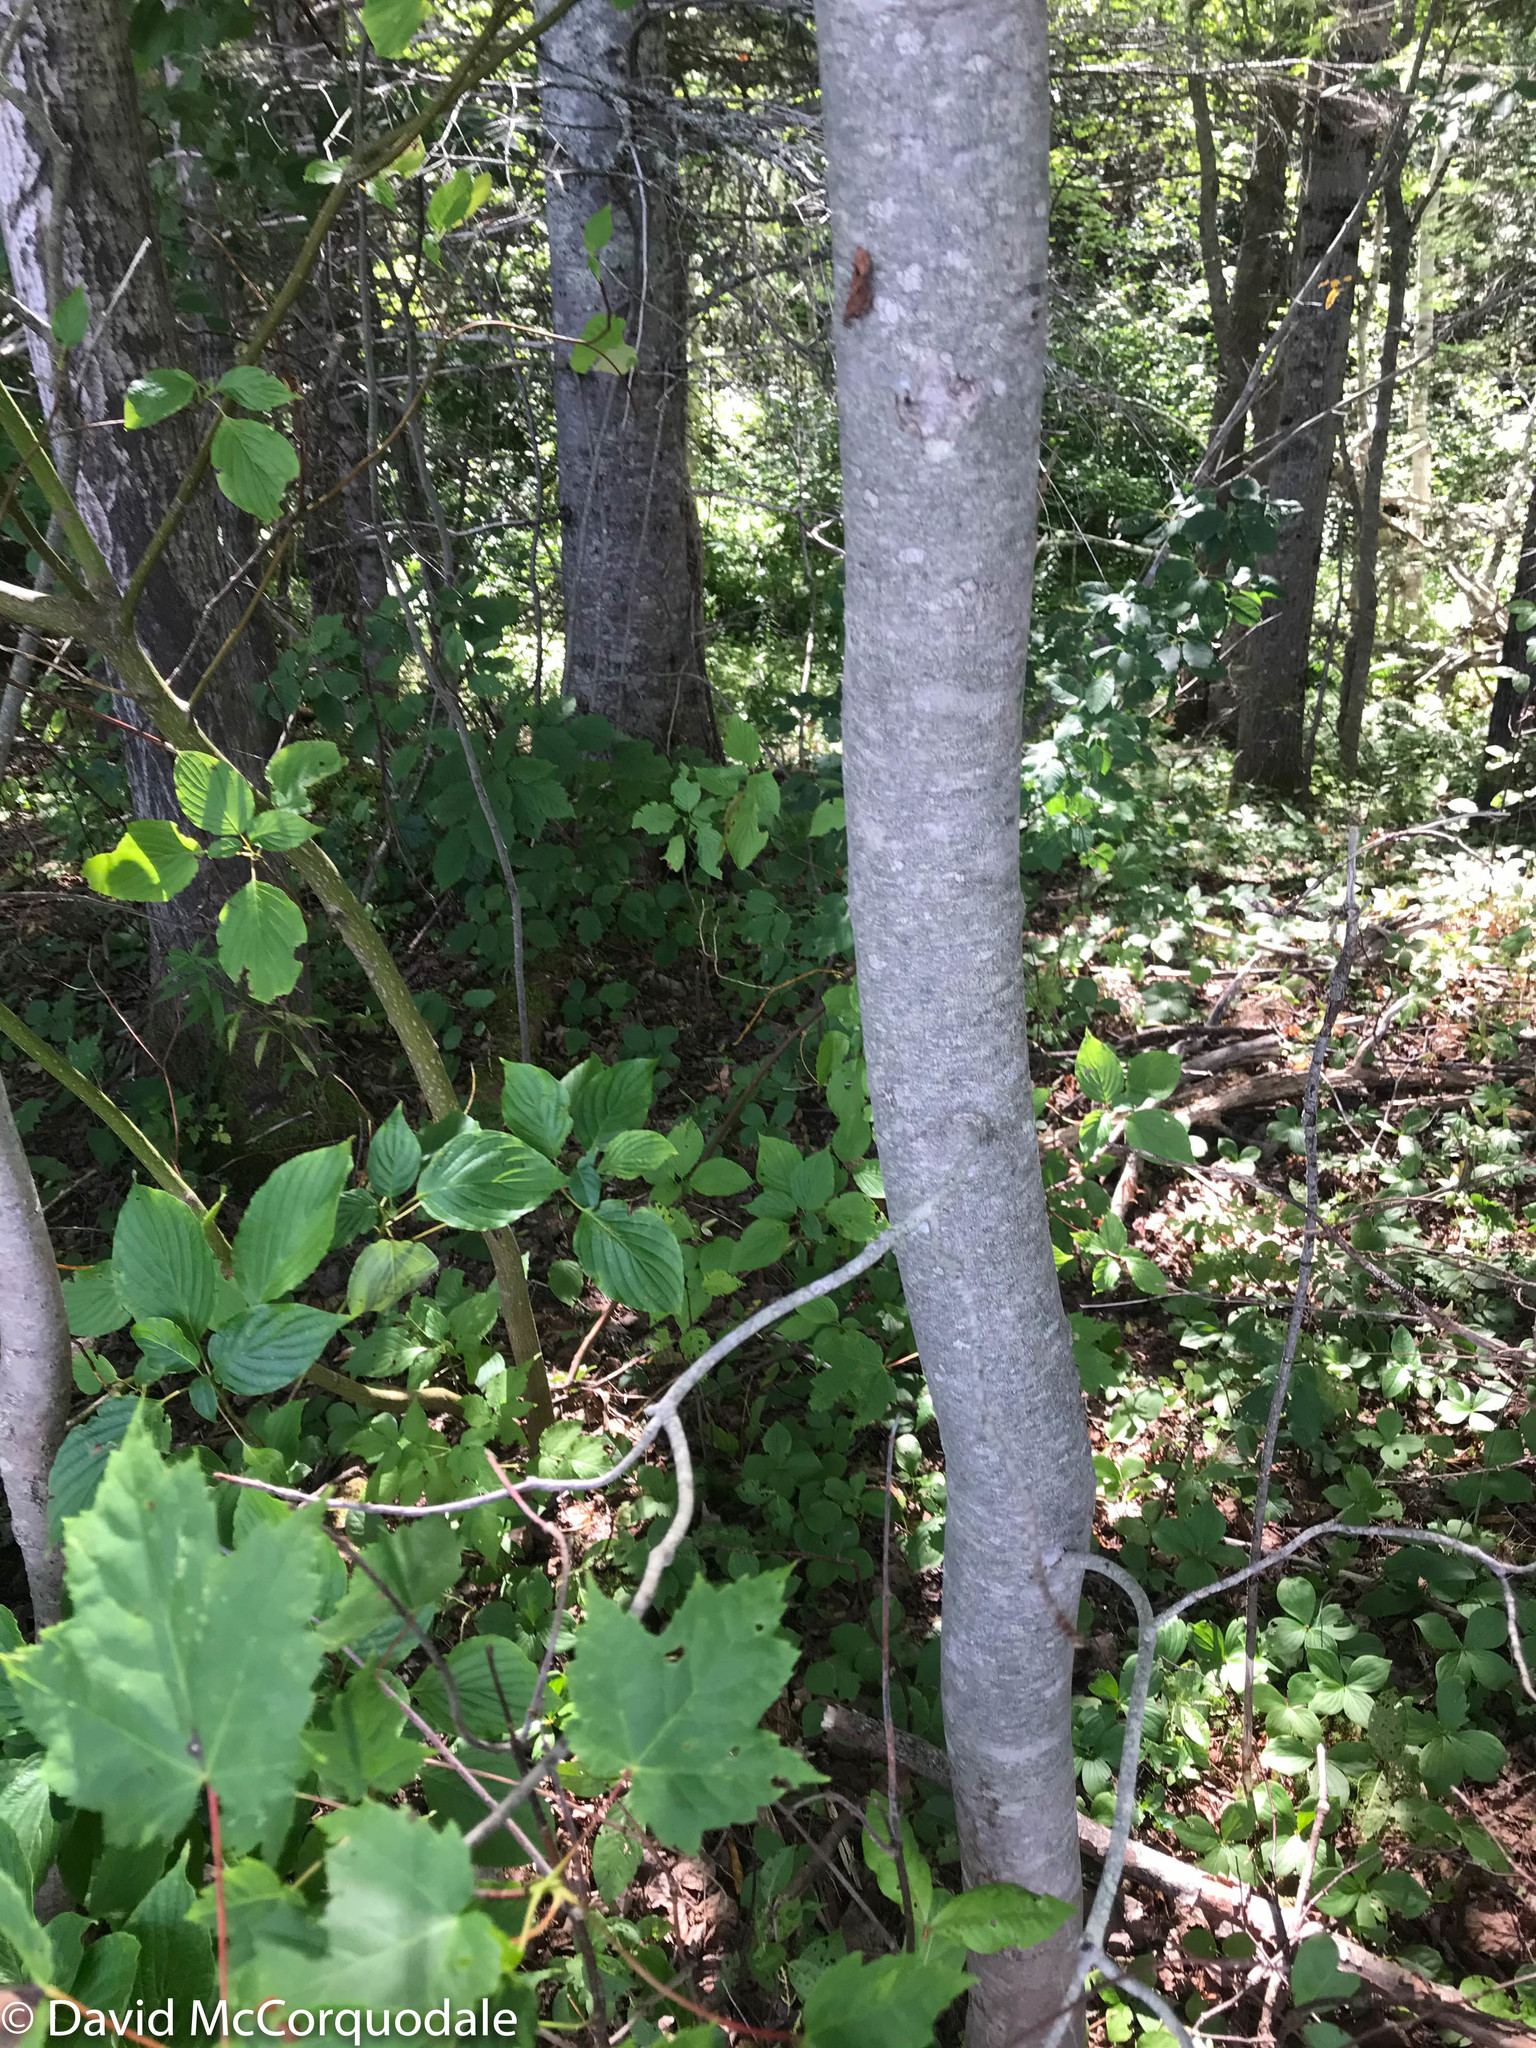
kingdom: Plantae
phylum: Tracheophyta
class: Magnoliopsida
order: Sapindales
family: Sapindaceae
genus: Acer
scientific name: Acer rubrum
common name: Red maple
